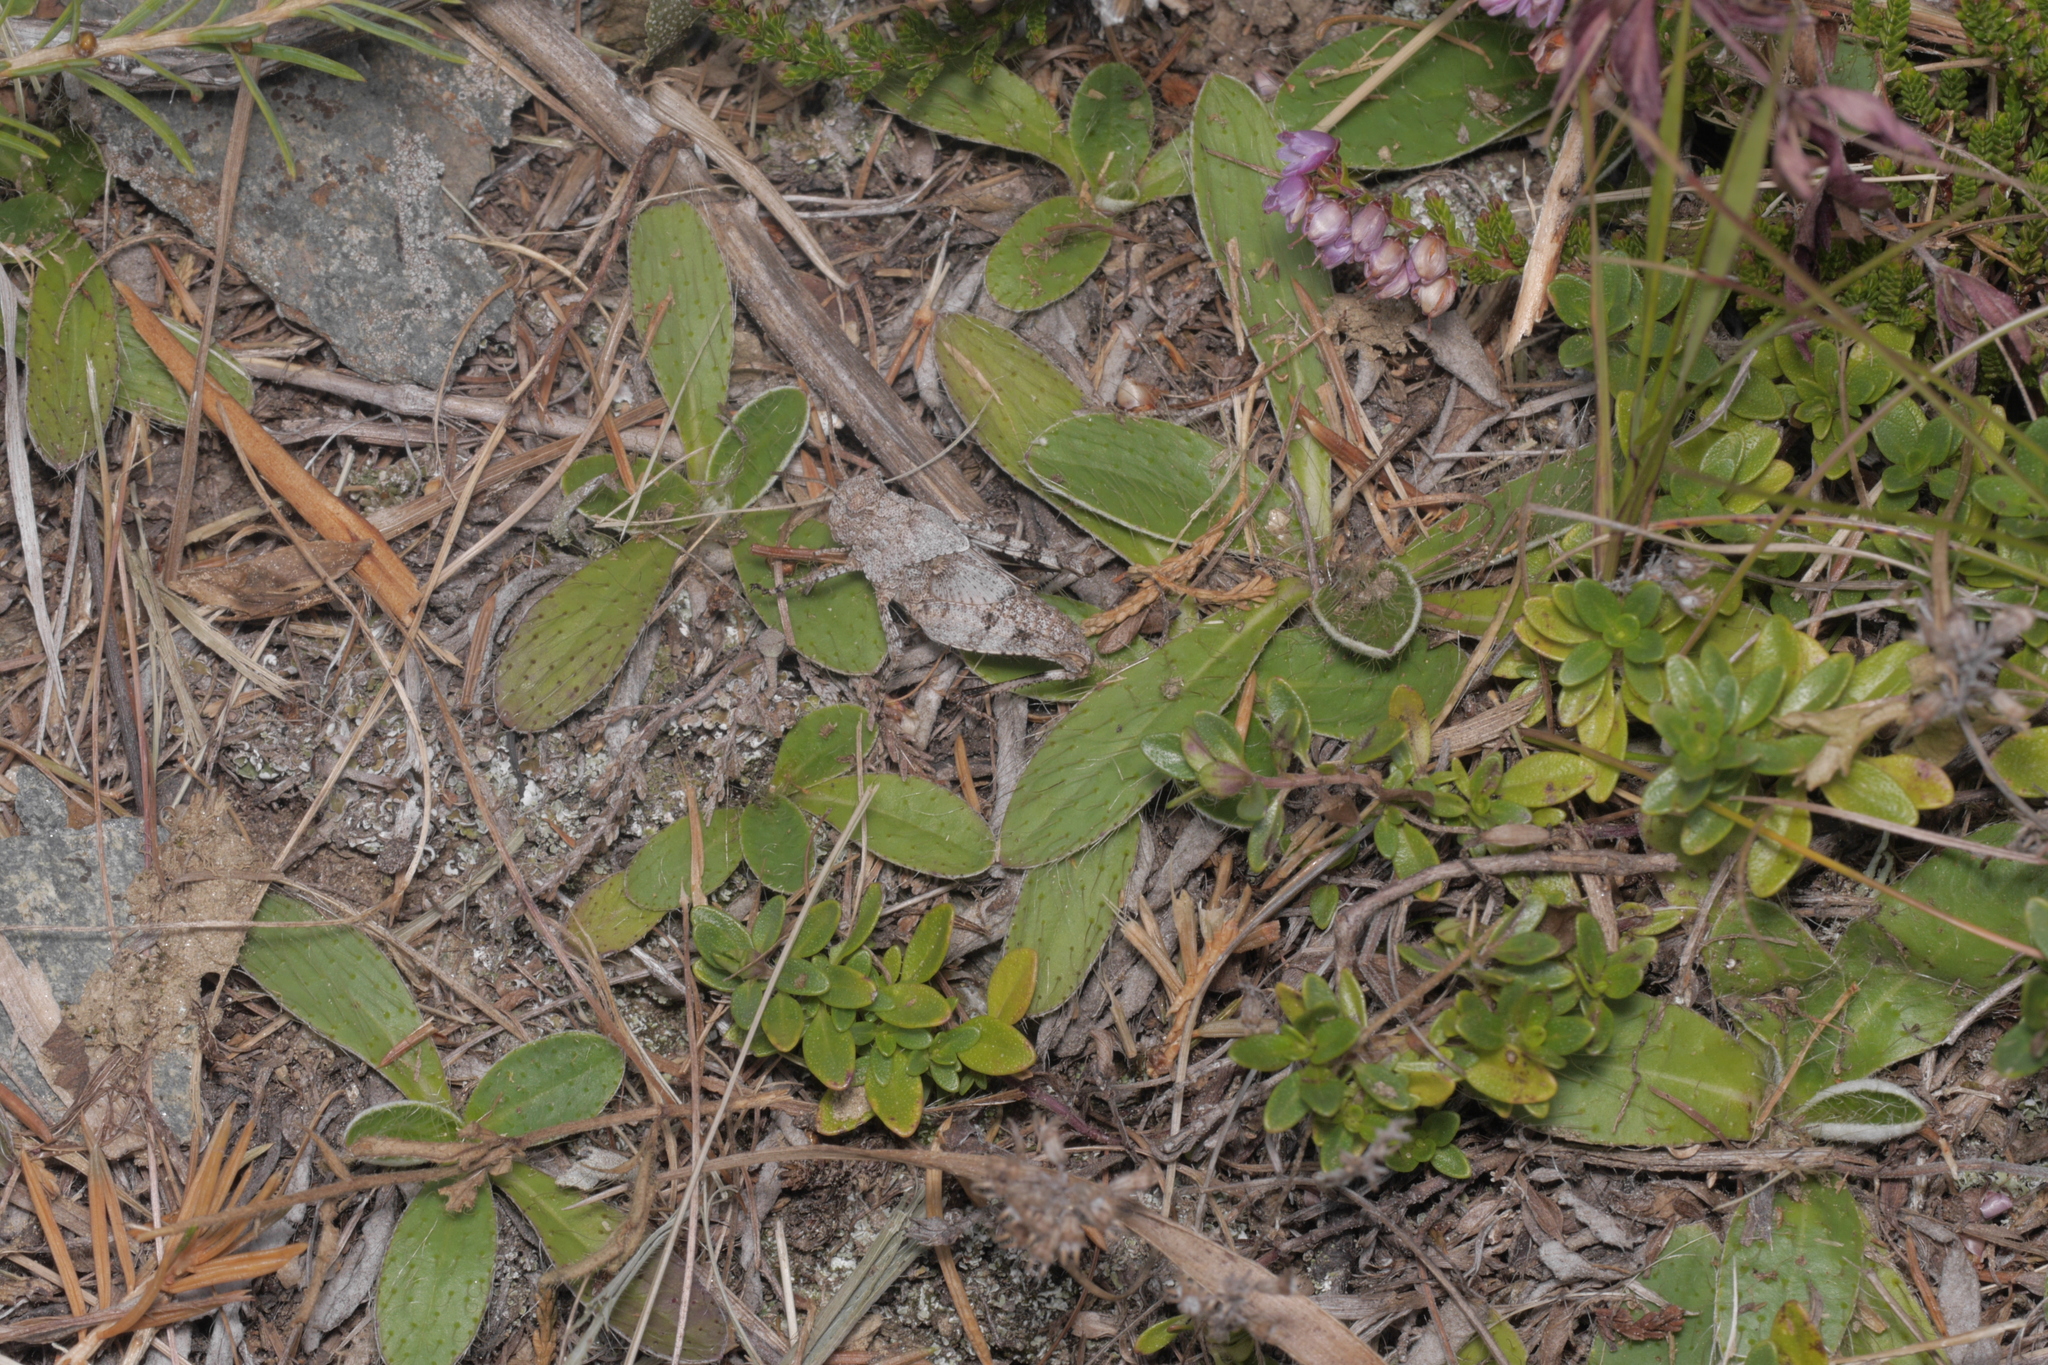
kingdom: Animalia
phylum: Arthropoda
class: Insecta
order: Orthoptera
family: Acrididae
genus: Oedipoda
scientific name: Oedipoda caerulescens
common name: Blue-winged grasshopper
